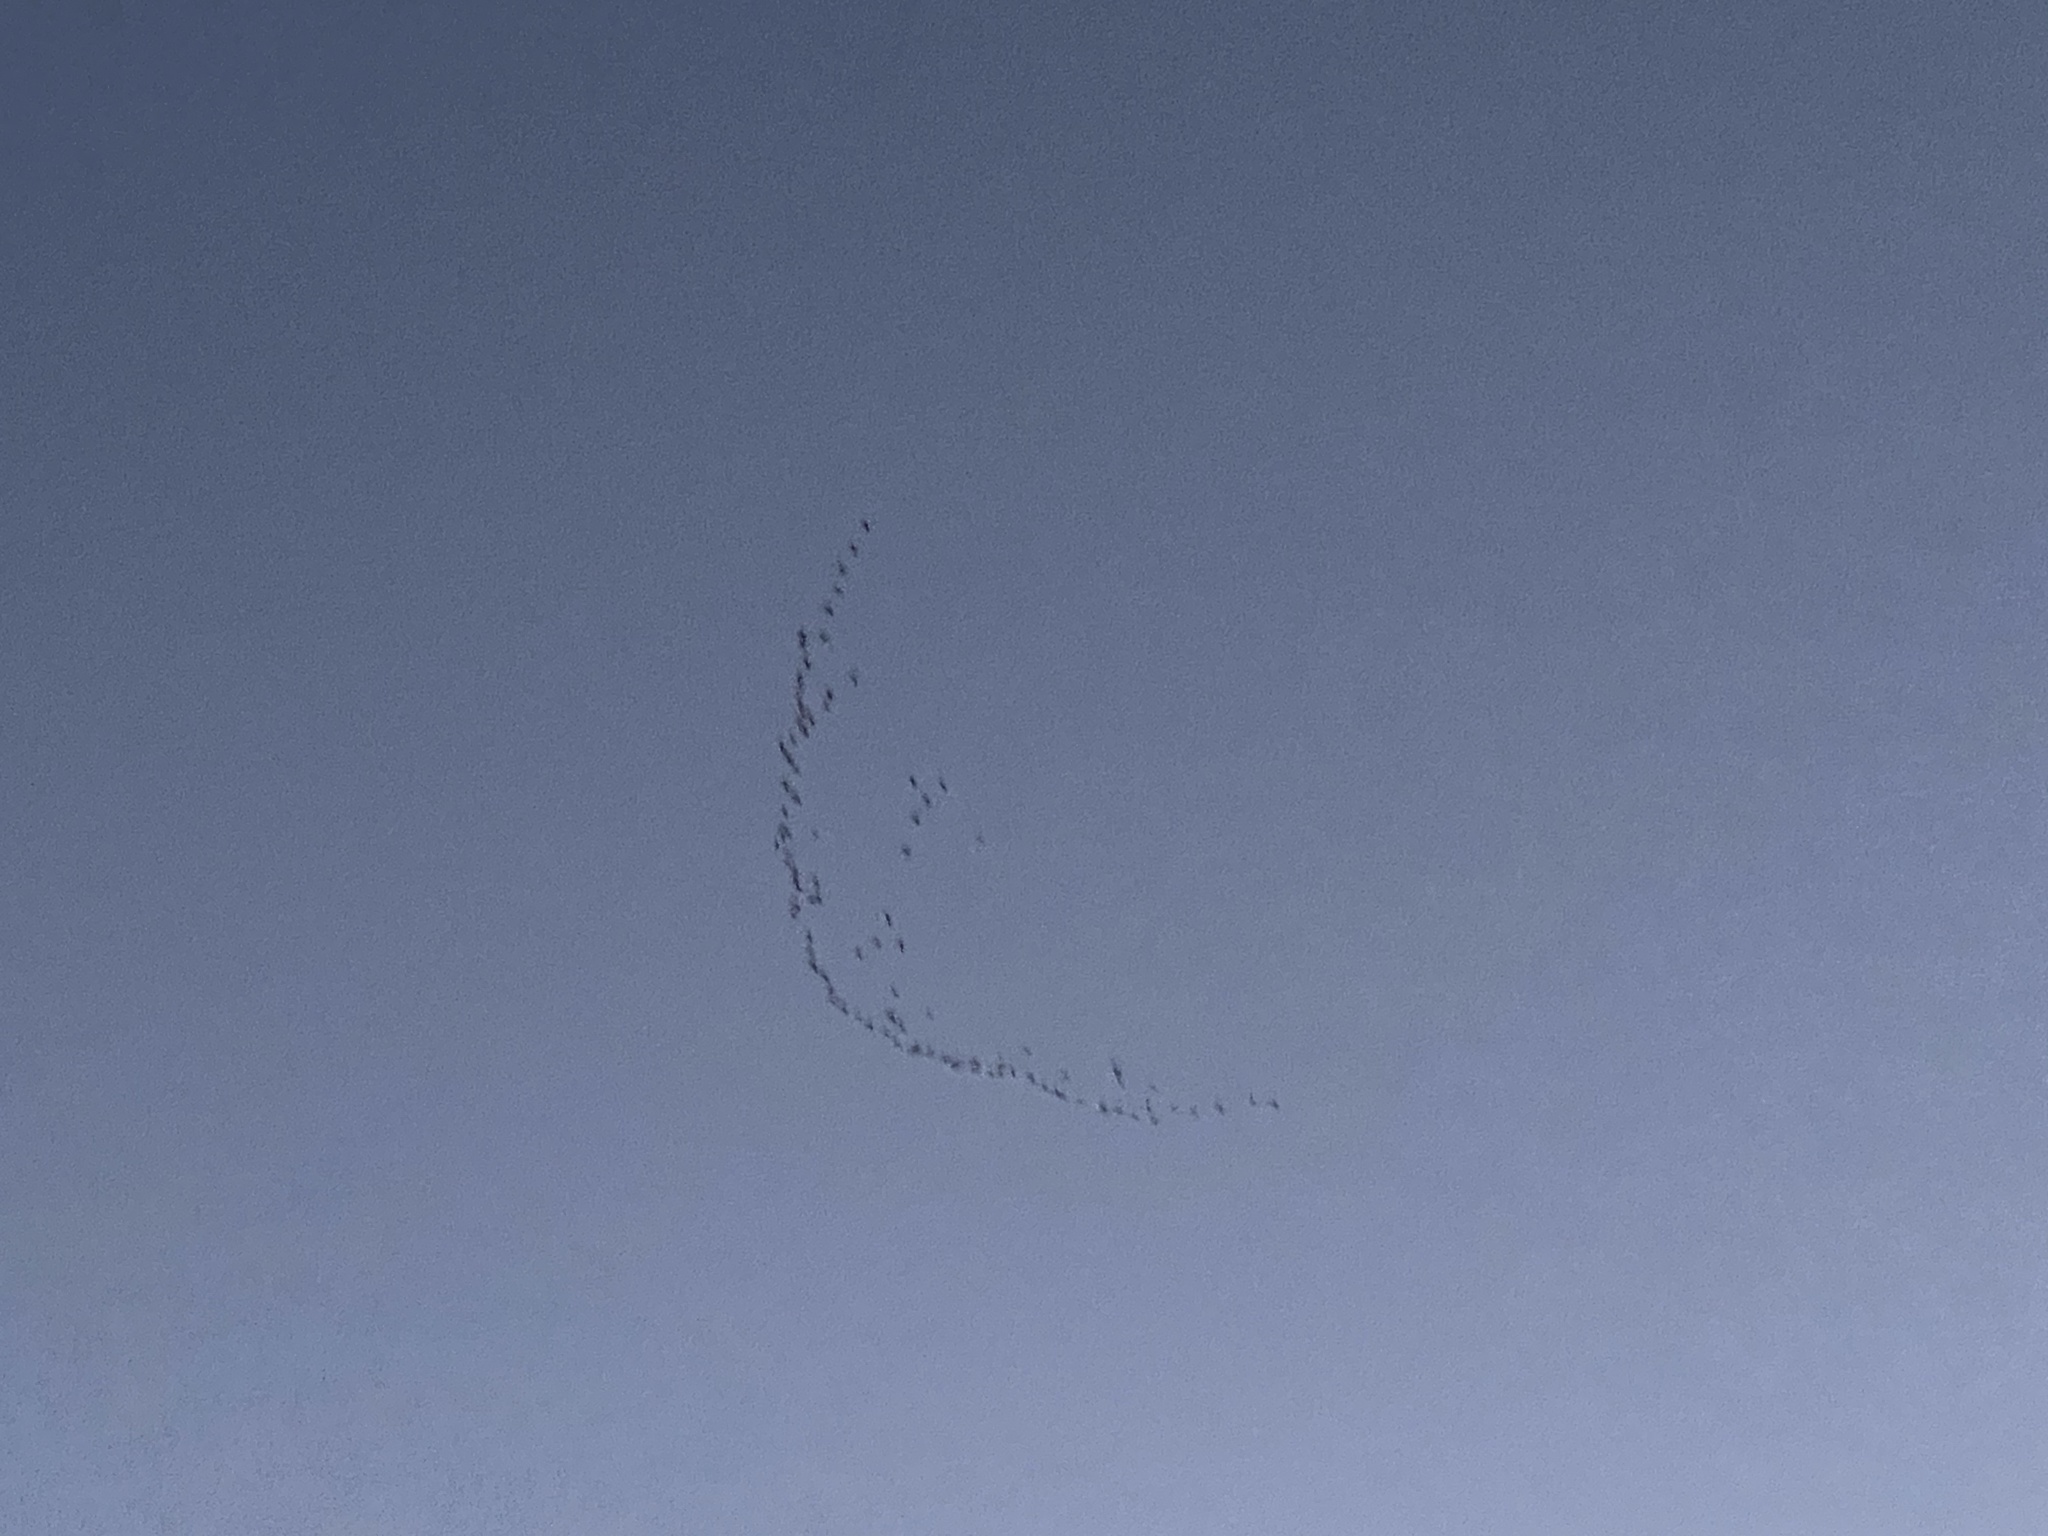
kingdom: Animalia
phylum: Chordata
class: Aves
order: Gruiformes
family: Gruidae
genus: Grus
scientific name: Grus canadensis
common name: Sandhill crane
